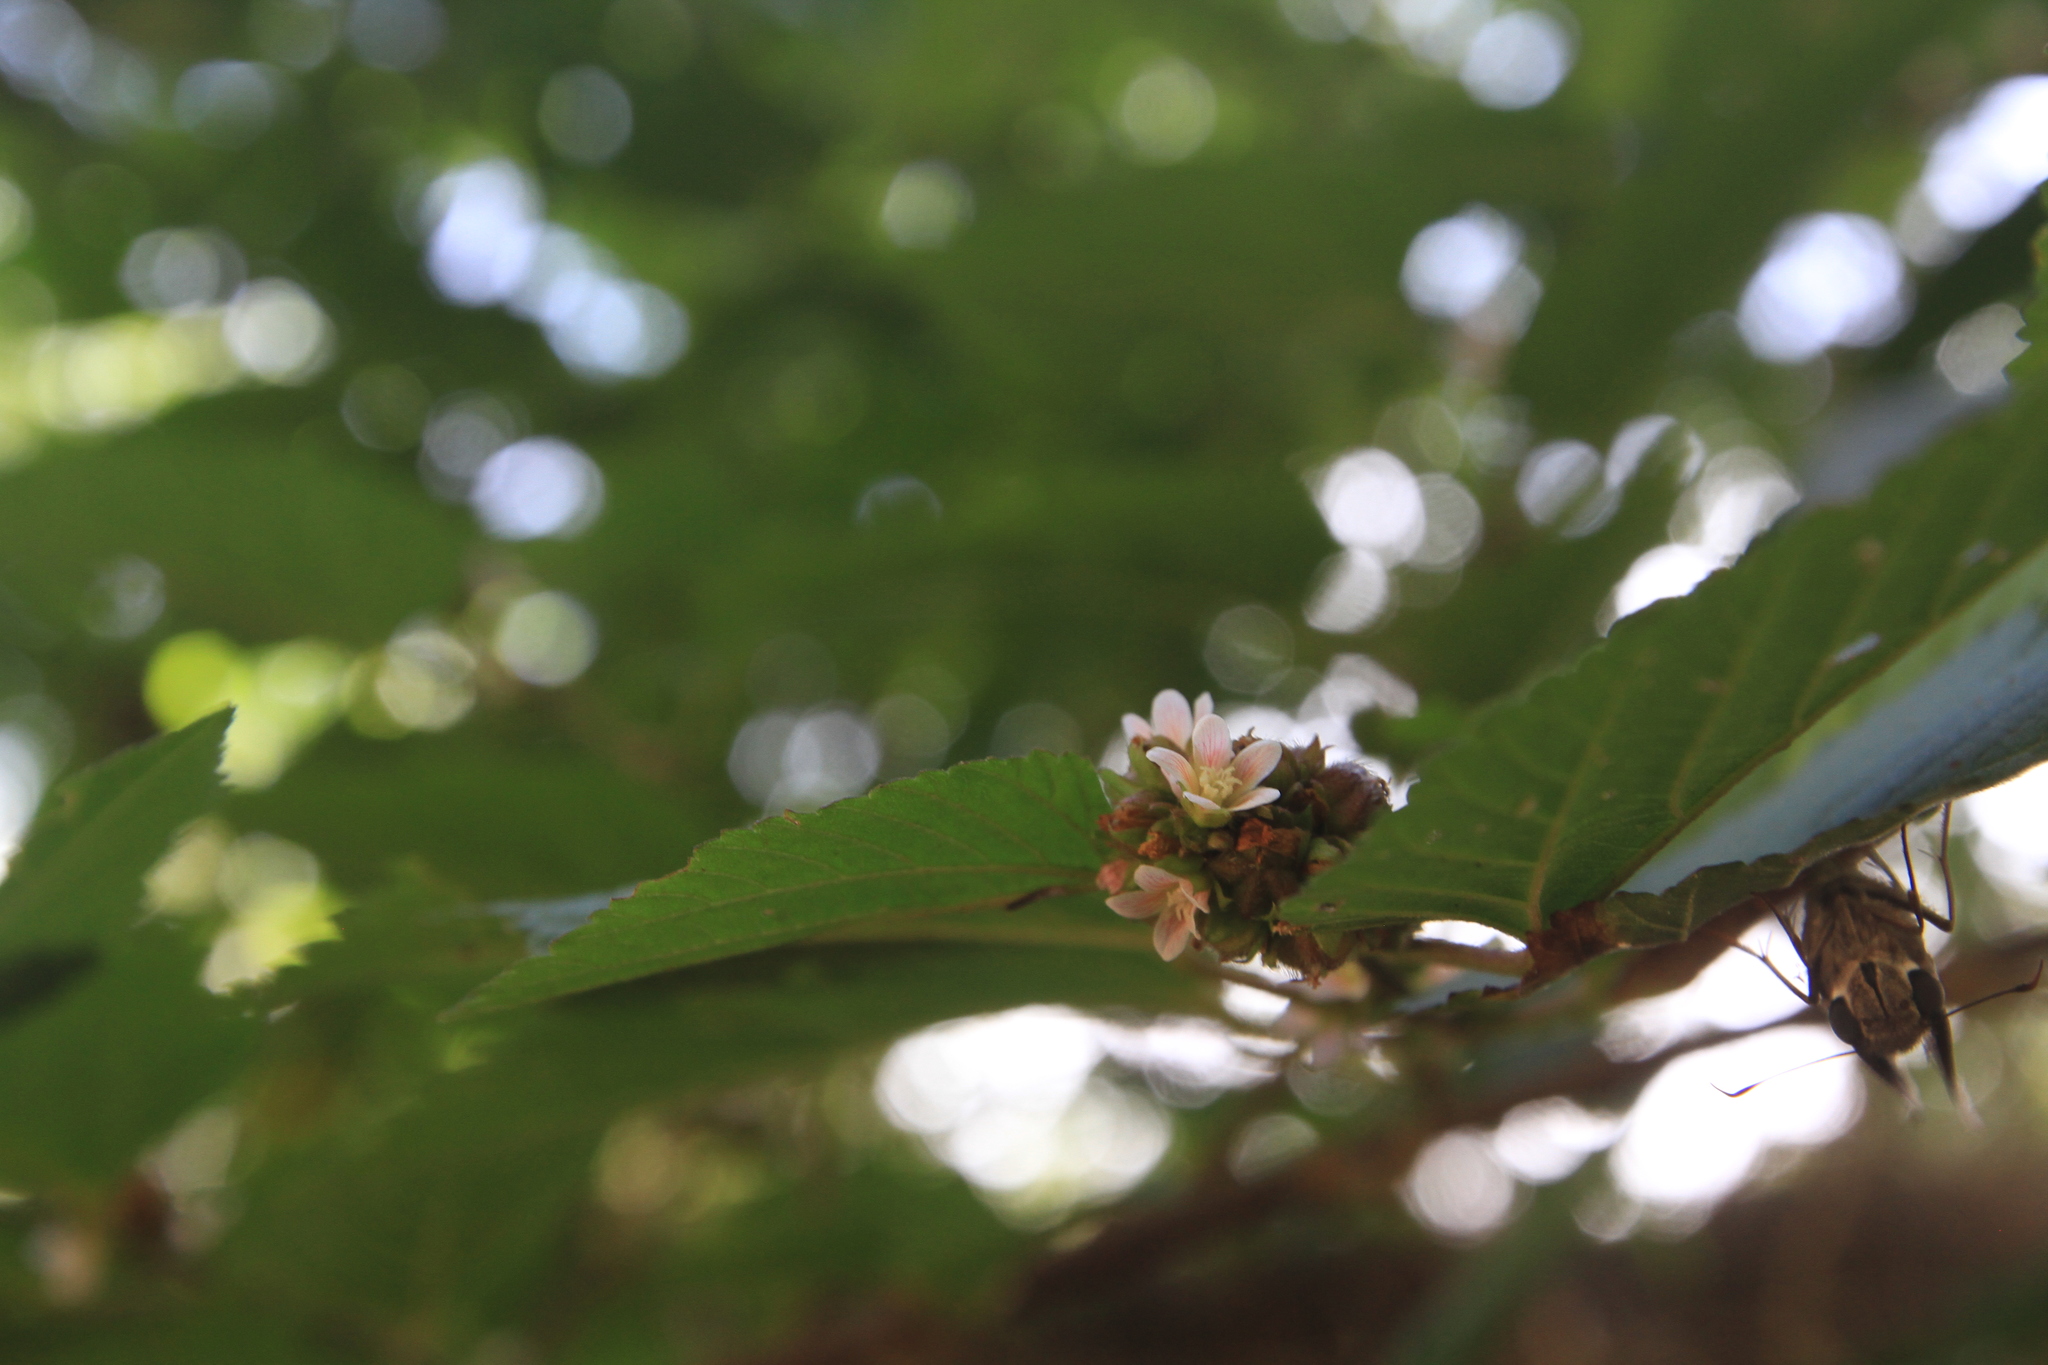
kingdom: Plantae
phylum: Tracheophyta
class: Magnoliopsida
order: Malvales
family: Malvaceae
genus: Melochia
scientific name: Melochia nodiflora
